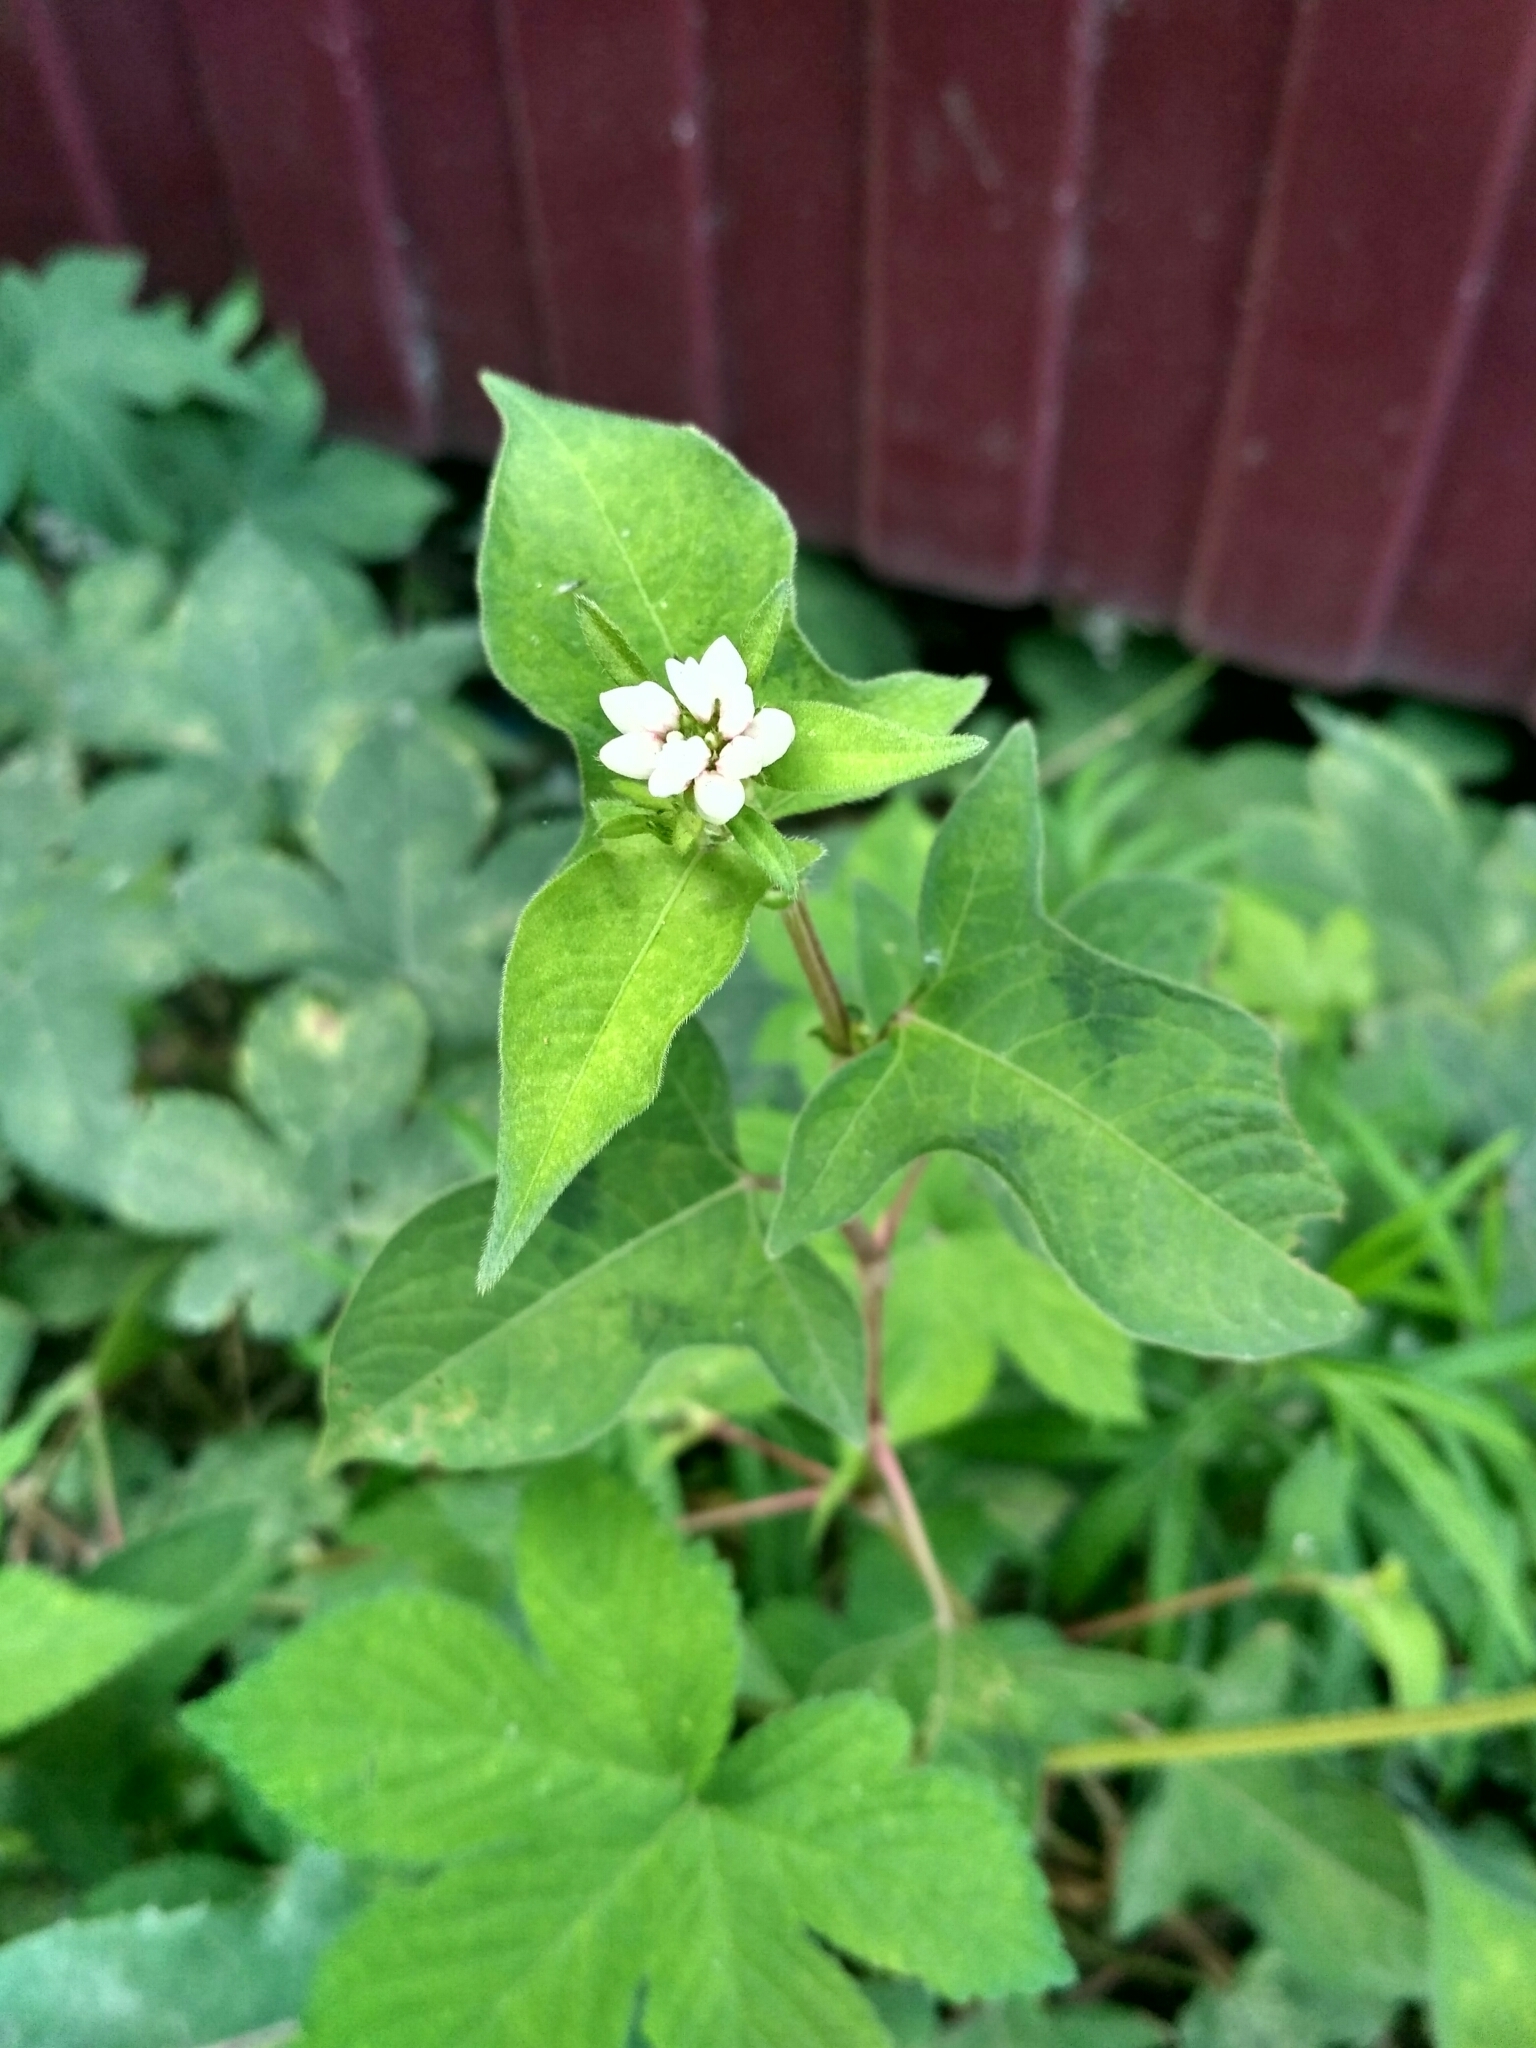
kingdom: Plantae
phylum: Tracheophyta
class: Magnoliopsida
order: Caryophyllales
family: Polygonaceae
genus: Persicaria
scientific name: Persicaria thunbergii
